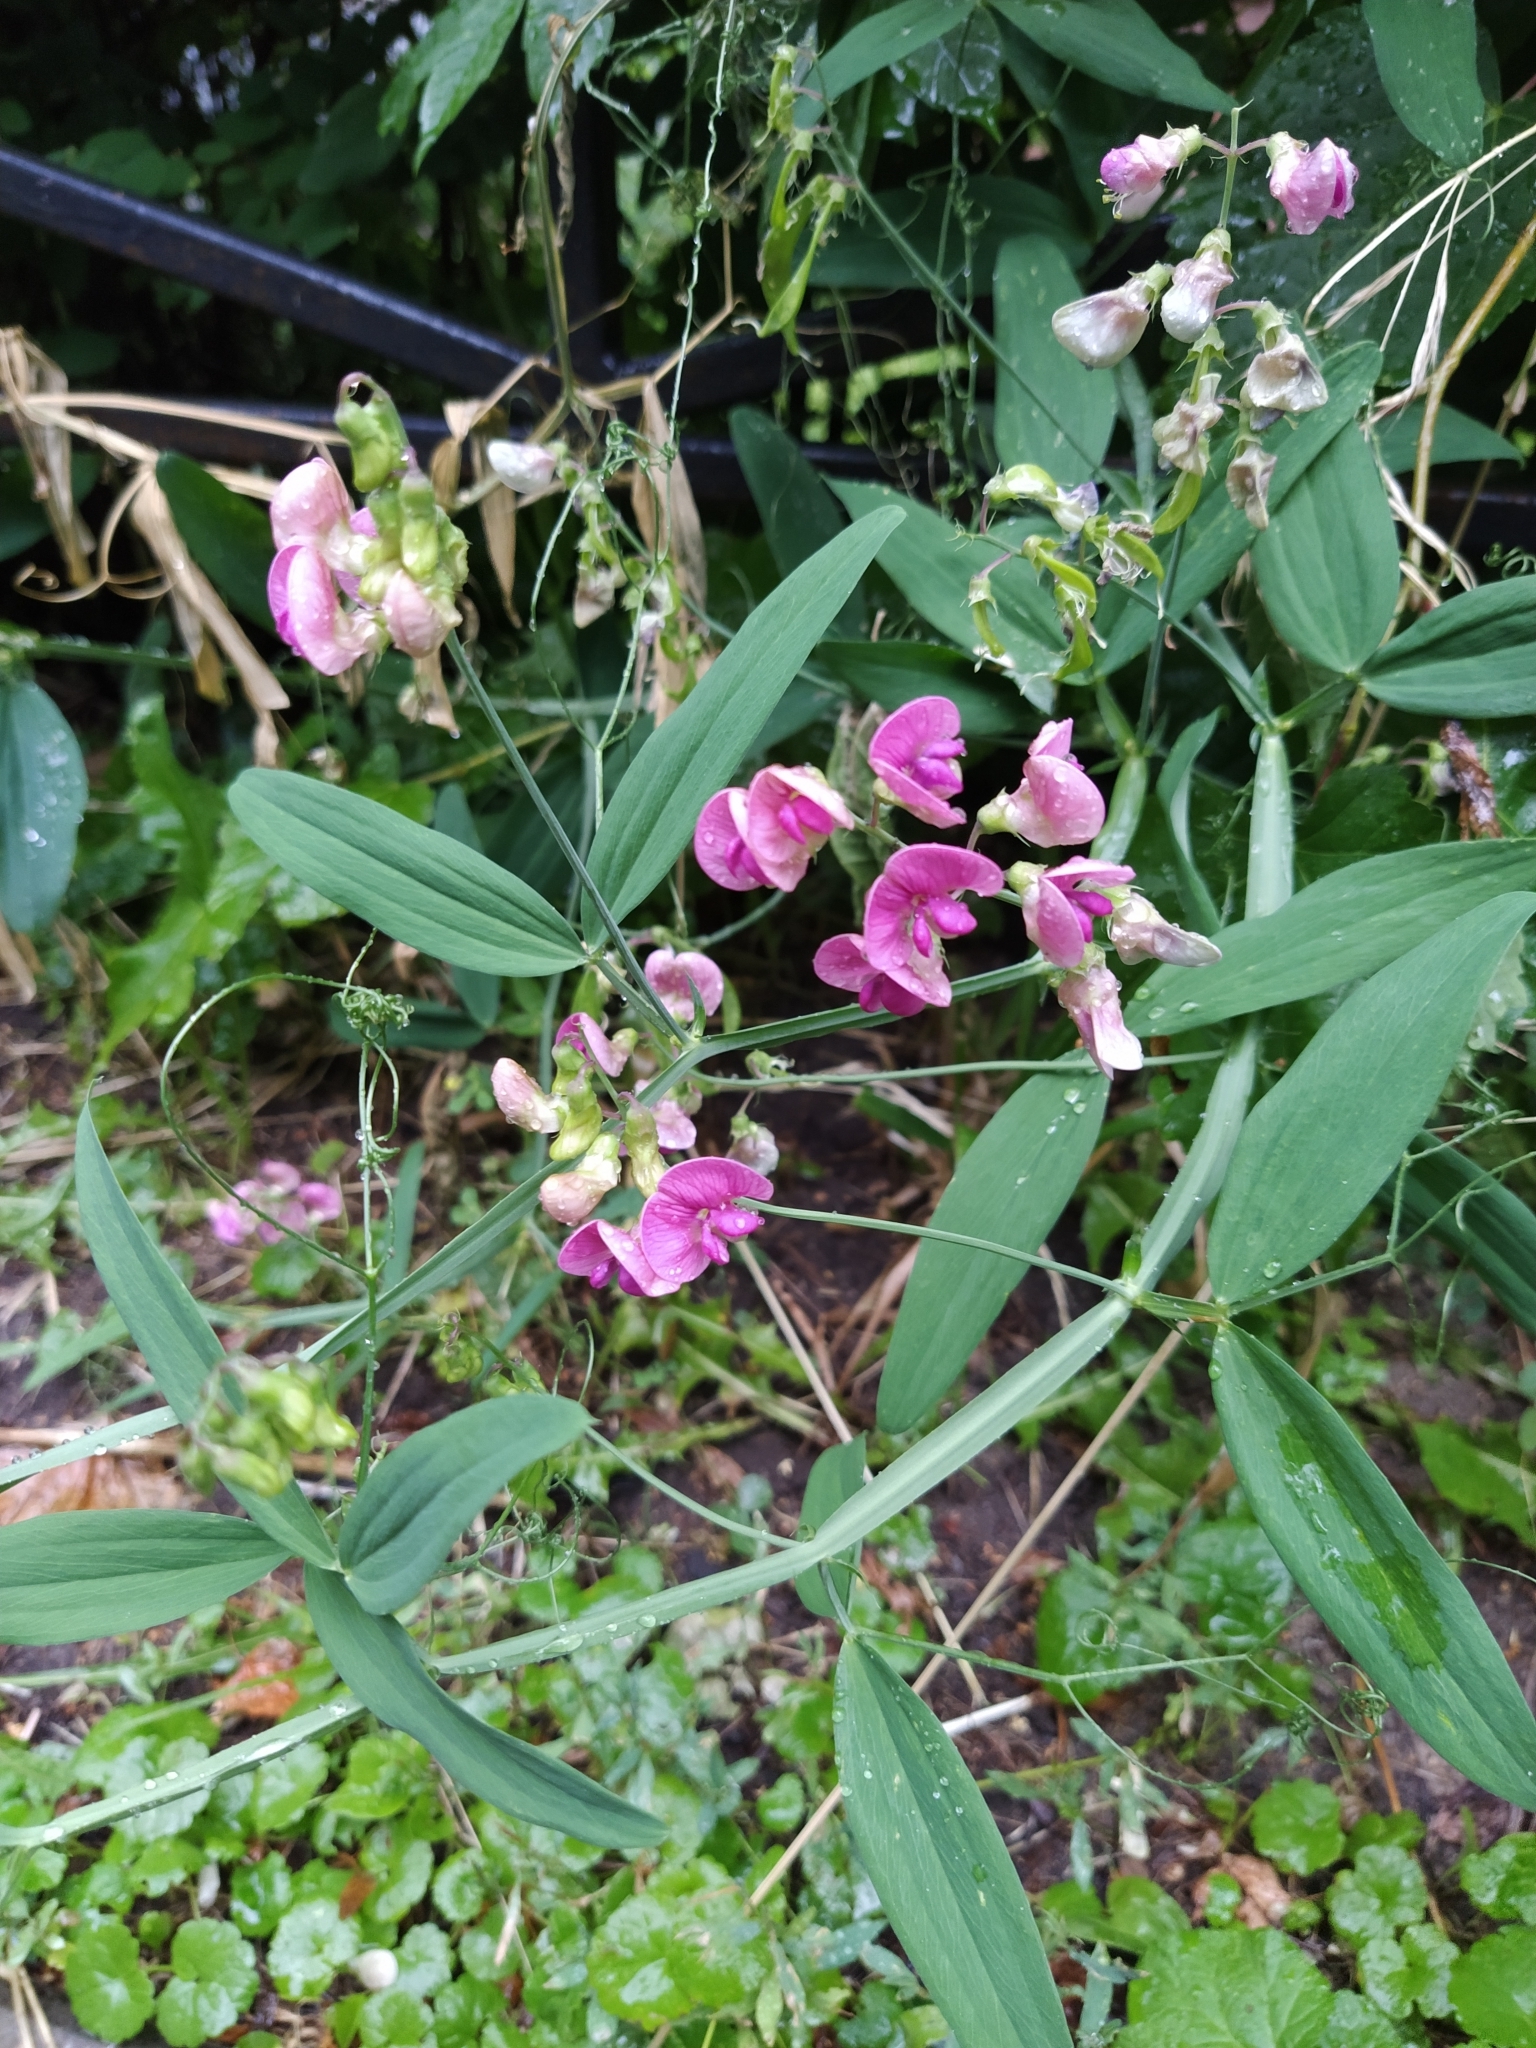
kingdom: Plantae
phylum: Tracheophyta
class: Magnoliopsida
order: Fabales
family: Fabaceae
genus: Lathyrus
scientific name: Lathyrus sylvestris
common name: Flat pea
